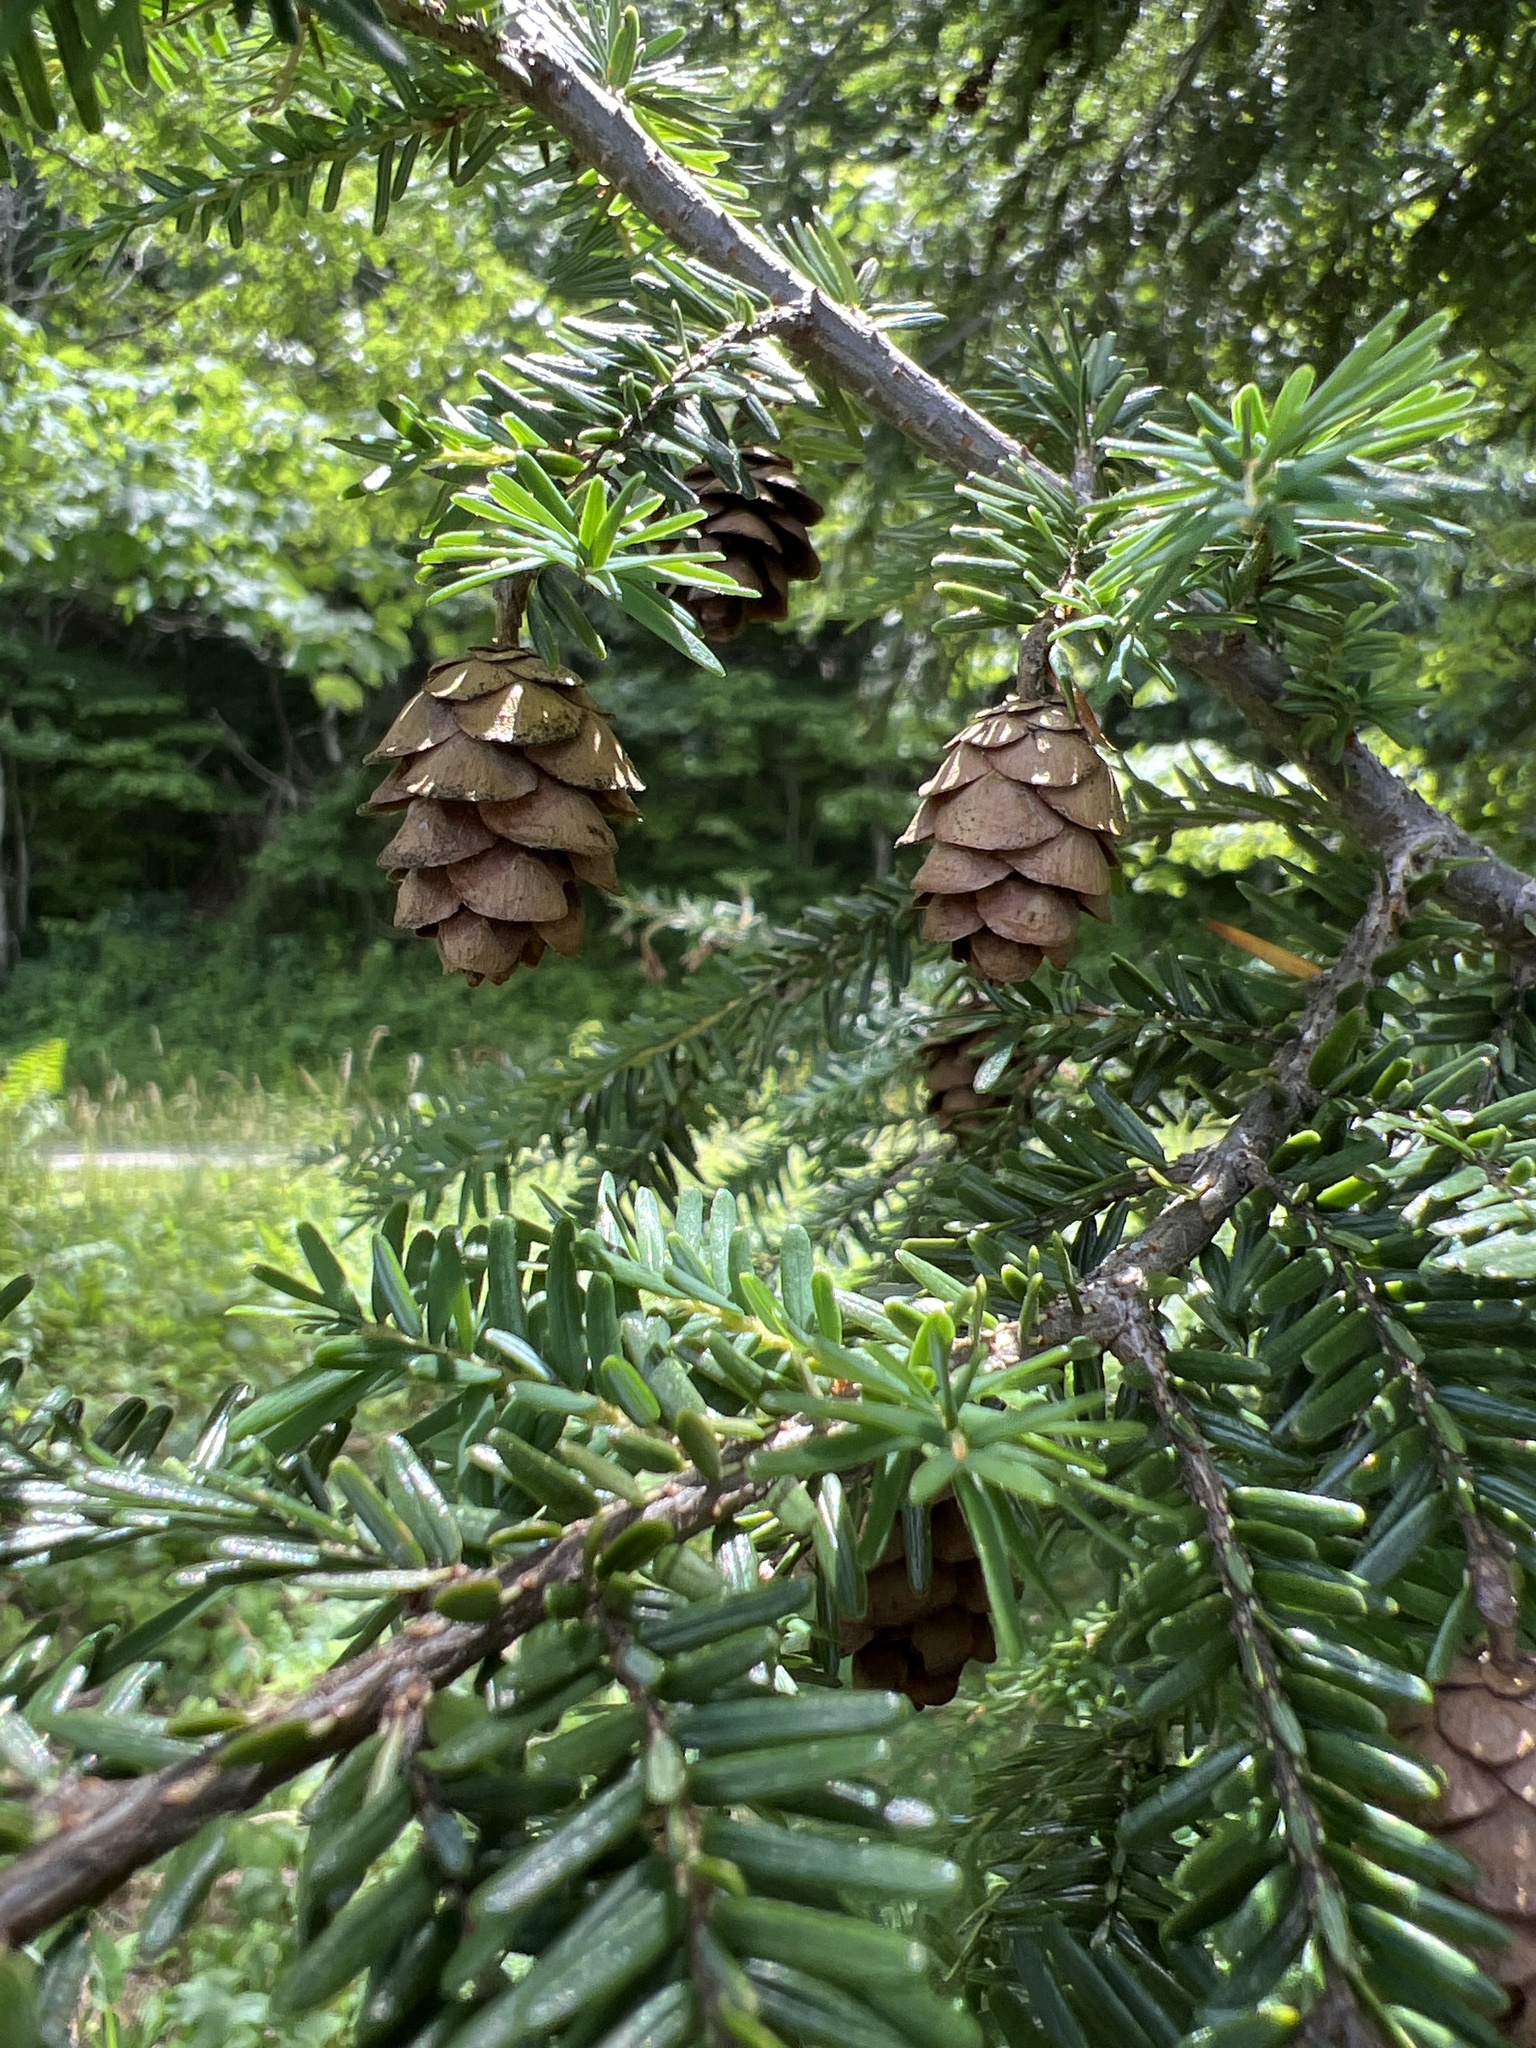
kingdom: Plantae
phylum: Tracheophyta
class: Pinopsida
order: Pinales
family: Pinaceae
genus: Tsuga
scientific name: Tsuga canadensis
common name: Eastern hemlock
